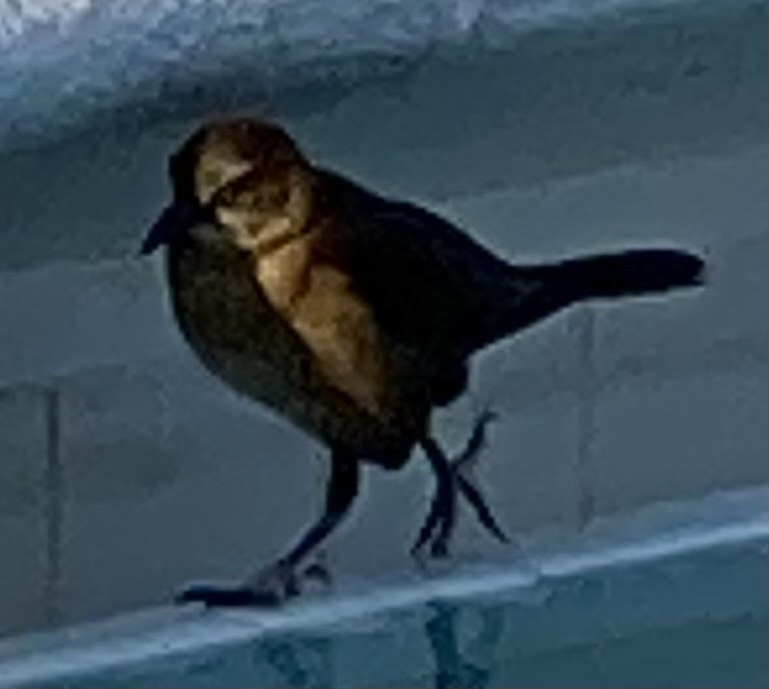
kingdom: Animalia
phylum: Chordata
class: Aves
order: Passeriformes
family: Icteridae
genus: Quiscalus
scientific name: Quiscalus major
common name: Boat-tailed grackle
